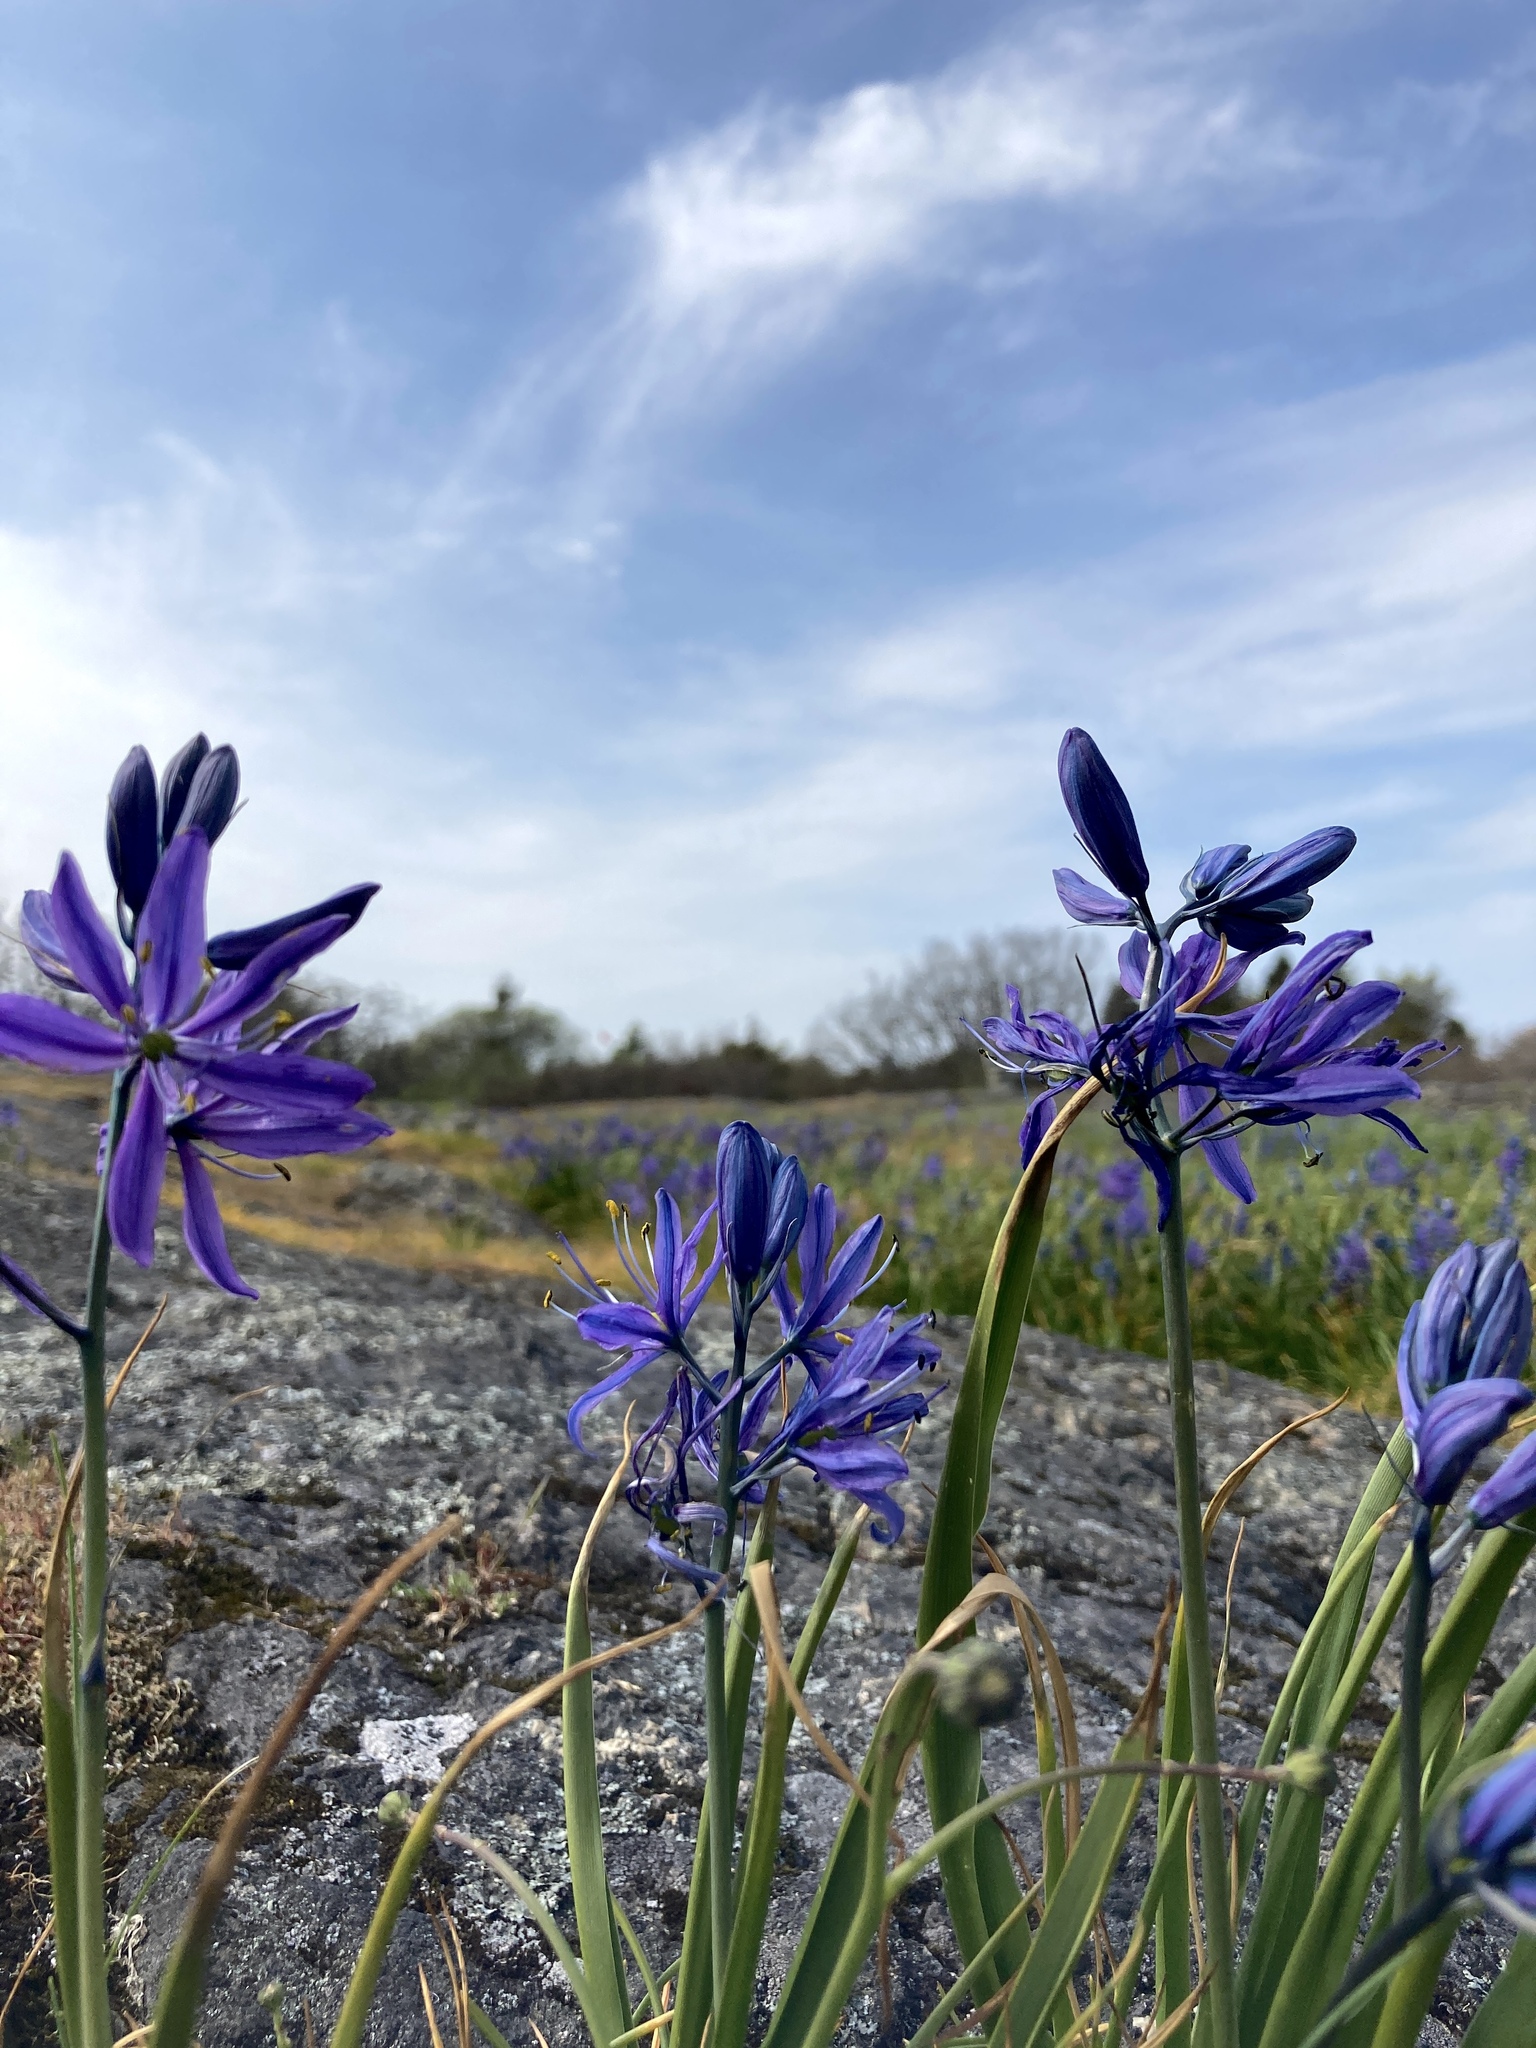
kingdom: Plantae
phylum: Tracheophyta
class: Liliopsida
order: Asparagales
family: Asparagaceae
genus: Camassia
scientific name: Camassia quamash
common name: Common camas
